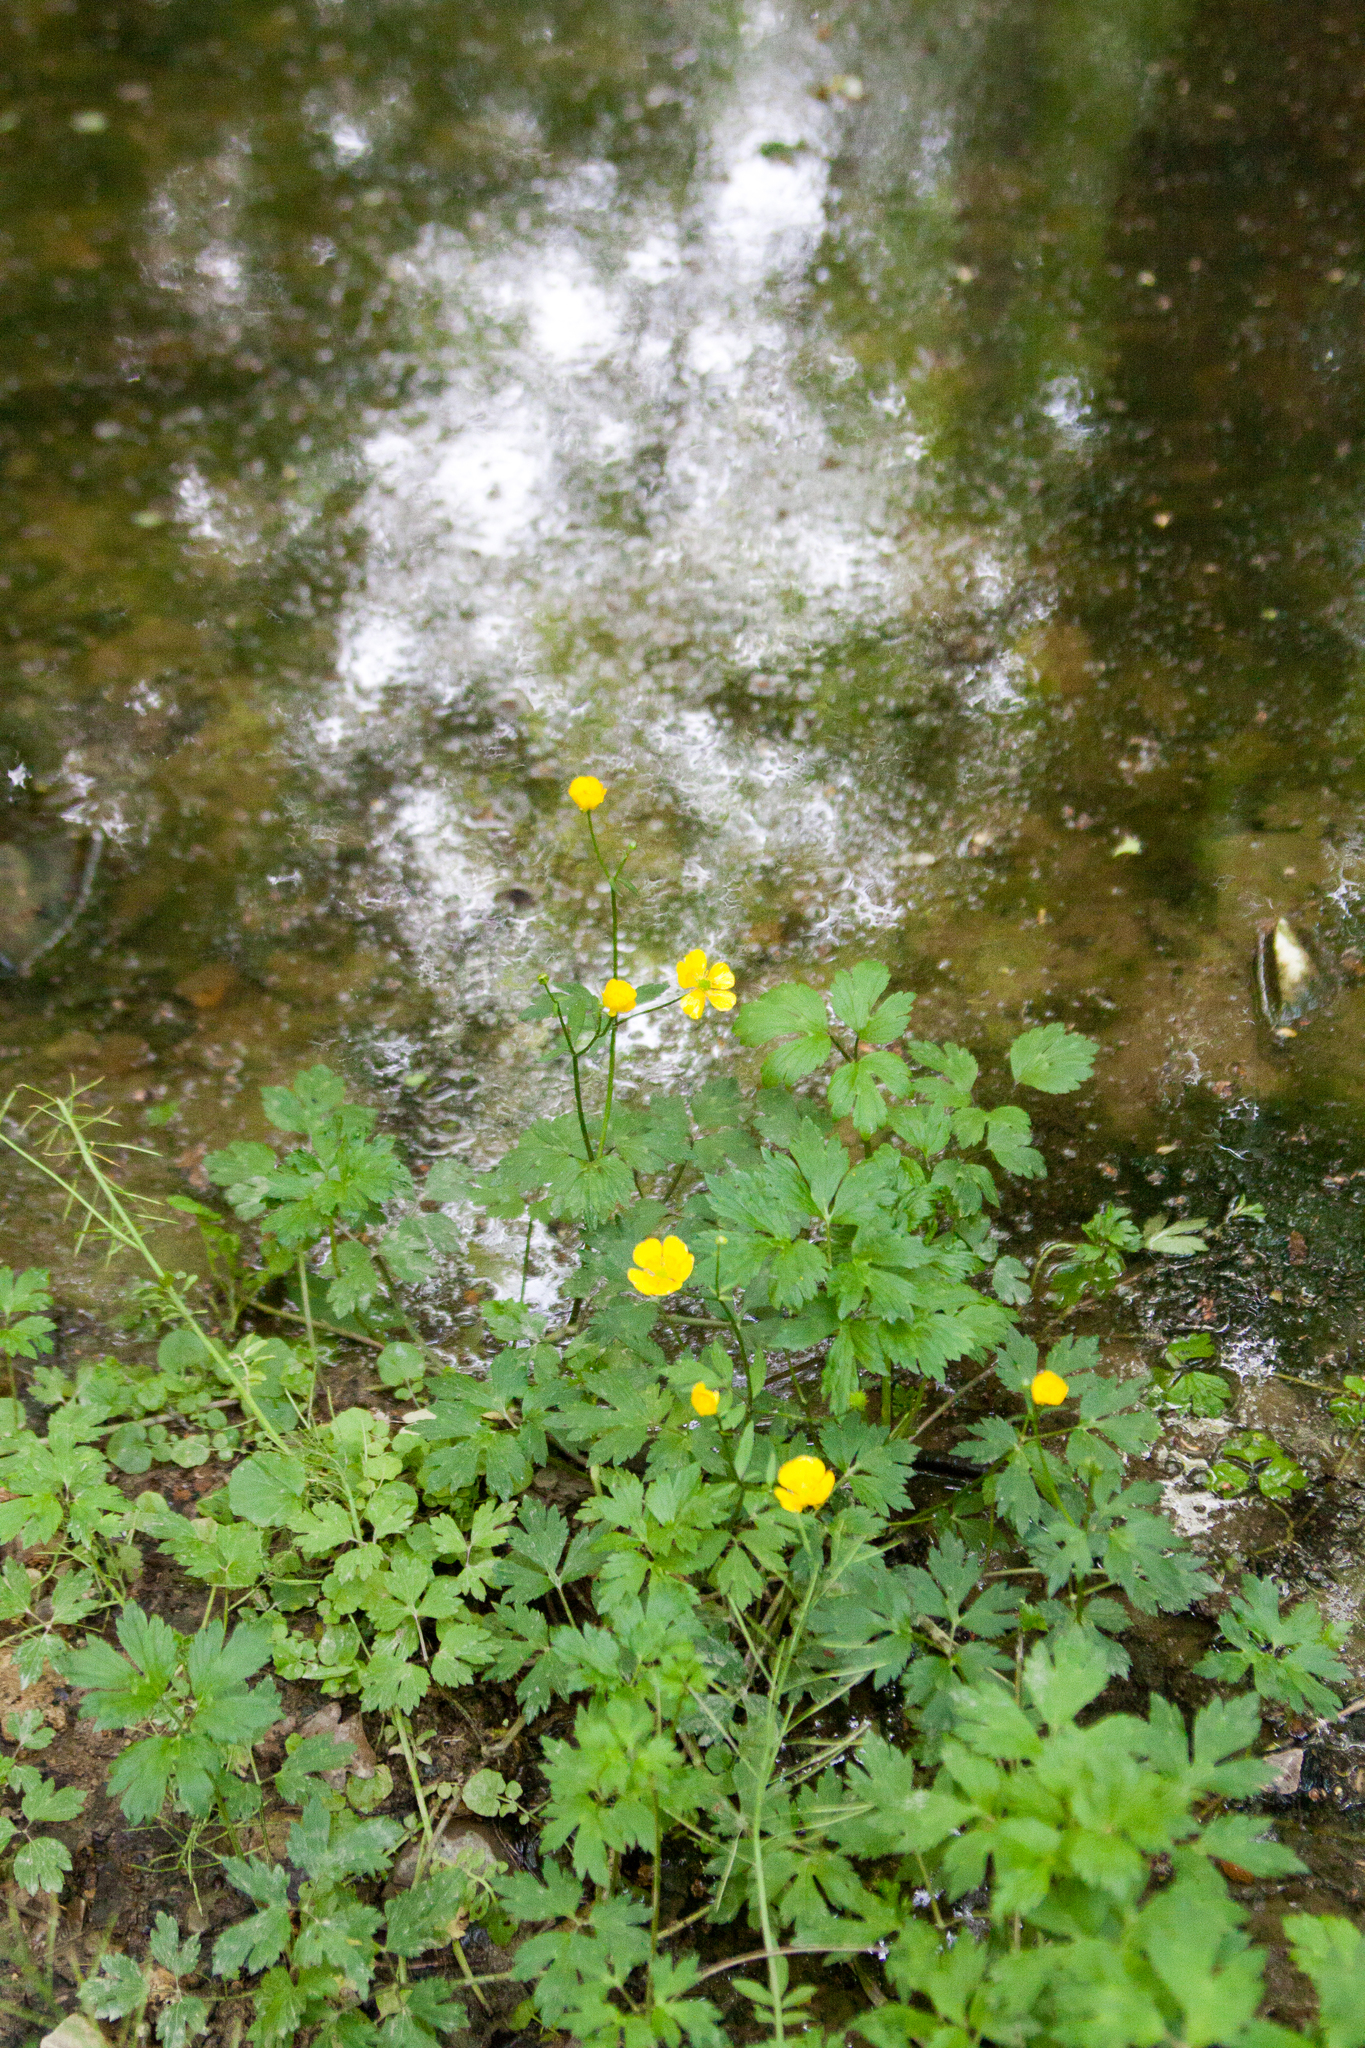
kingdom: Plantae
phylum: Tracheophyta
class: Magnoliopsida
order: Ranunculales
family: Ranunculaceae
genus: Ranunculus
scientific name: Ranunculus repens
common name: Creeping buttercup
